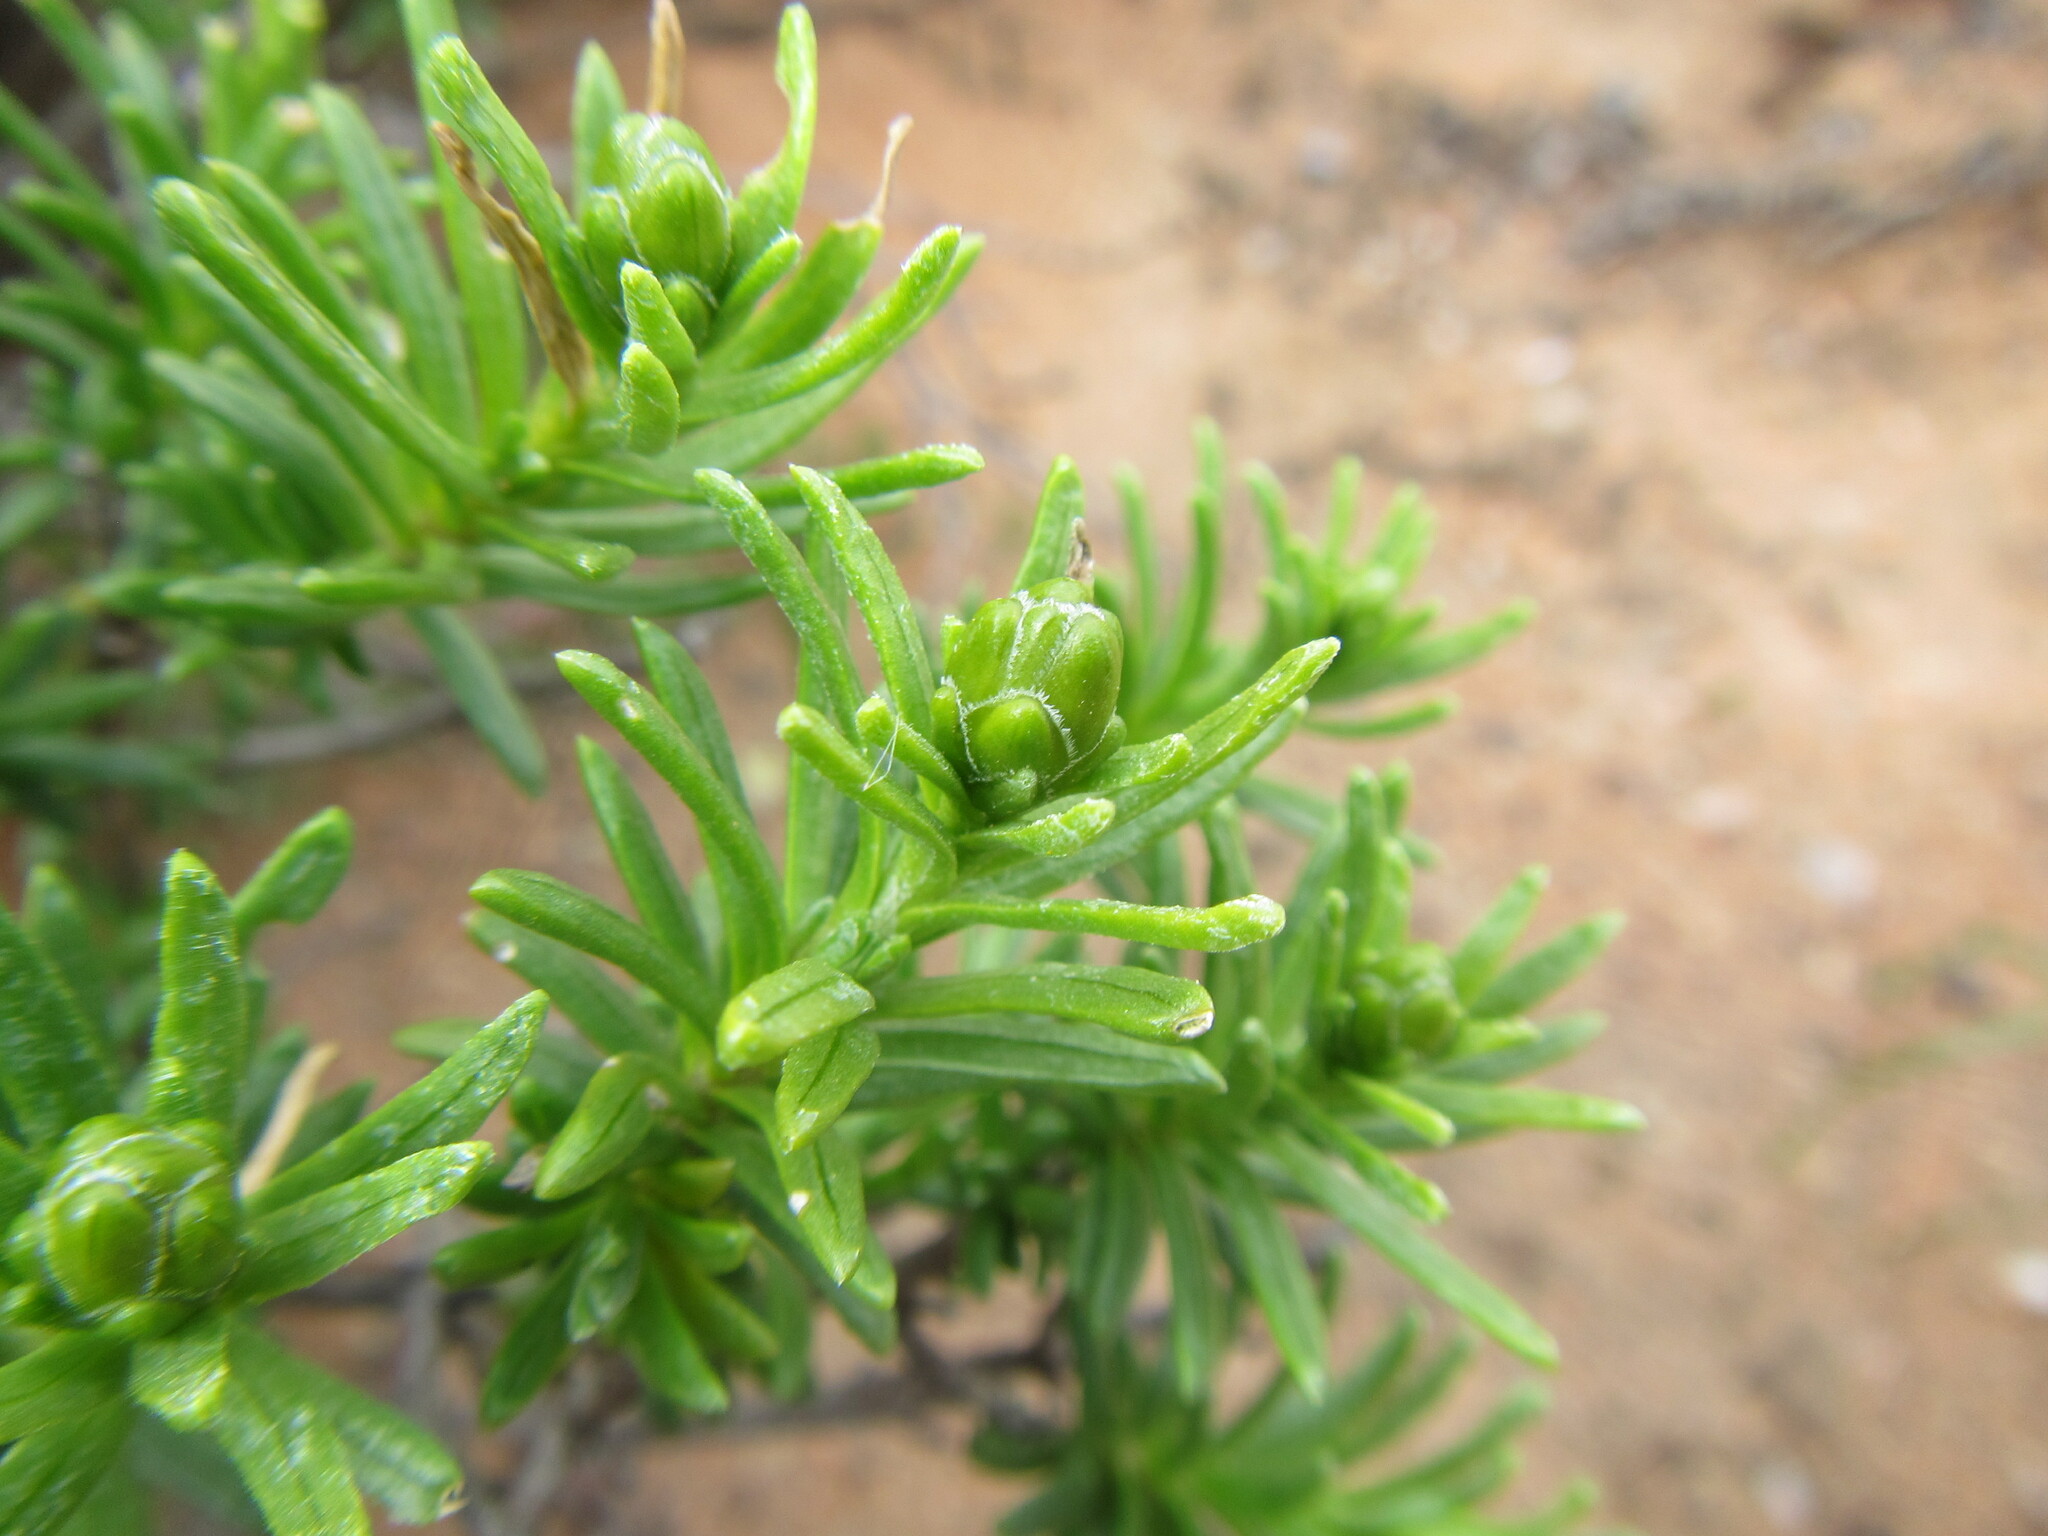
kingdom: Plantae
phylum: Tracheophyta
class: Magnoliopsida
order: Asterales
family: Asteraceae
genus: Pteronia
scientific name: Pteronia ciliata
